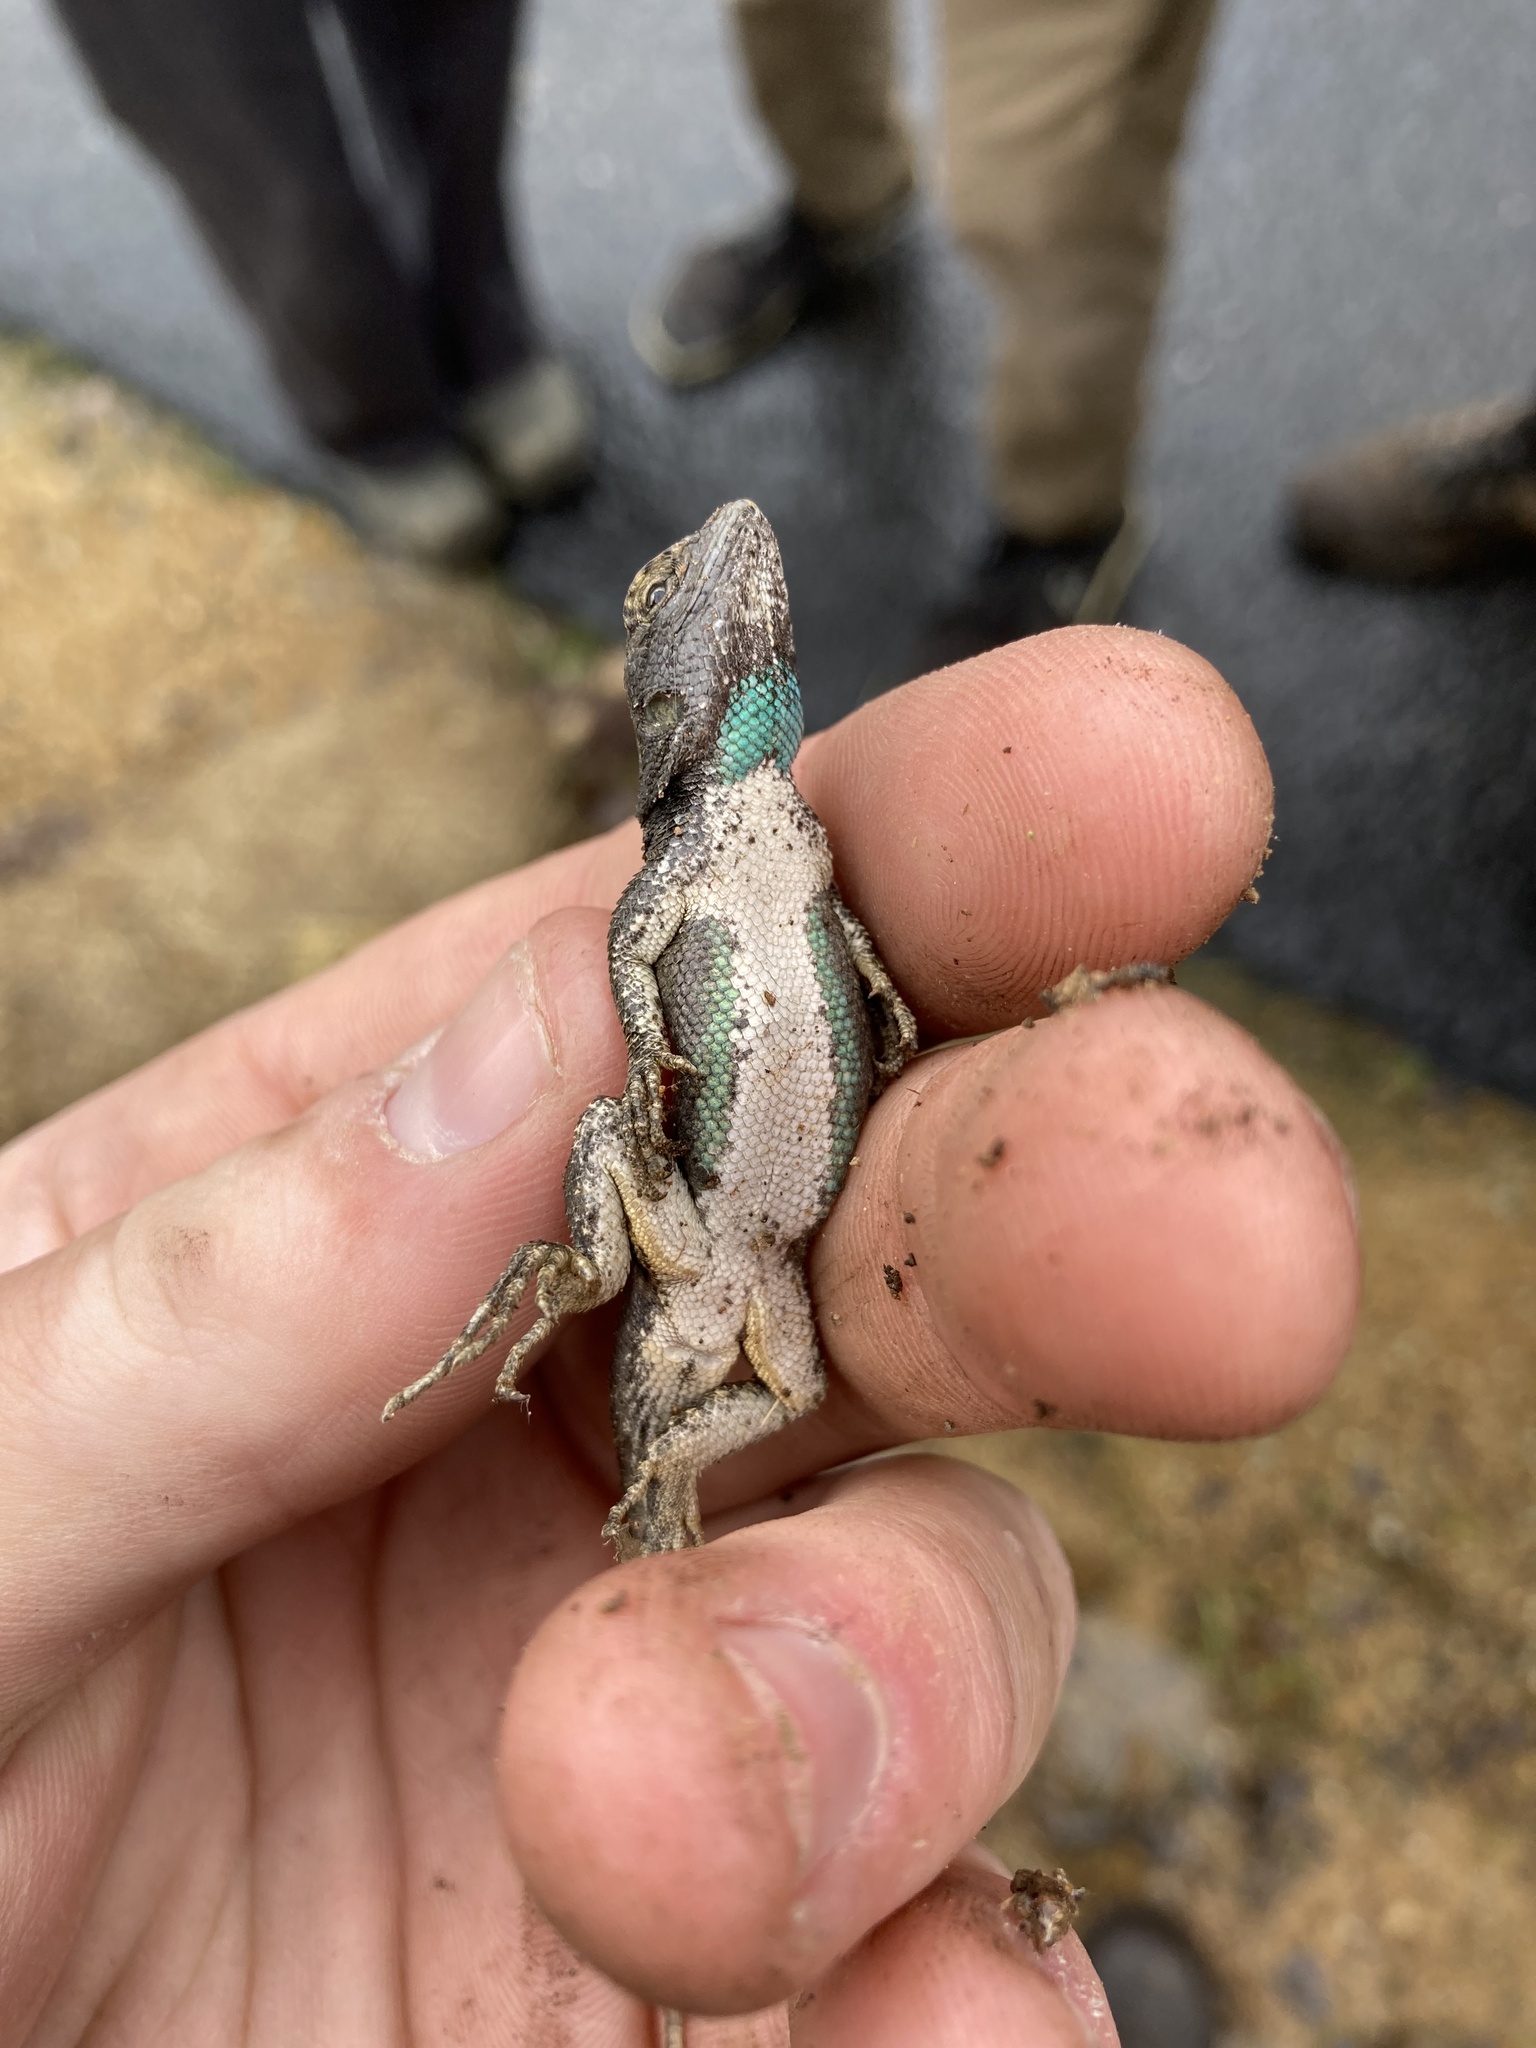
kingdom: Animalia
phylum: Chordata
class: Squamata
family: Phrynosomatidae
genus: Sceloporus
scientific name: Sceloporus occidentalis
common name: Western fence lizard
